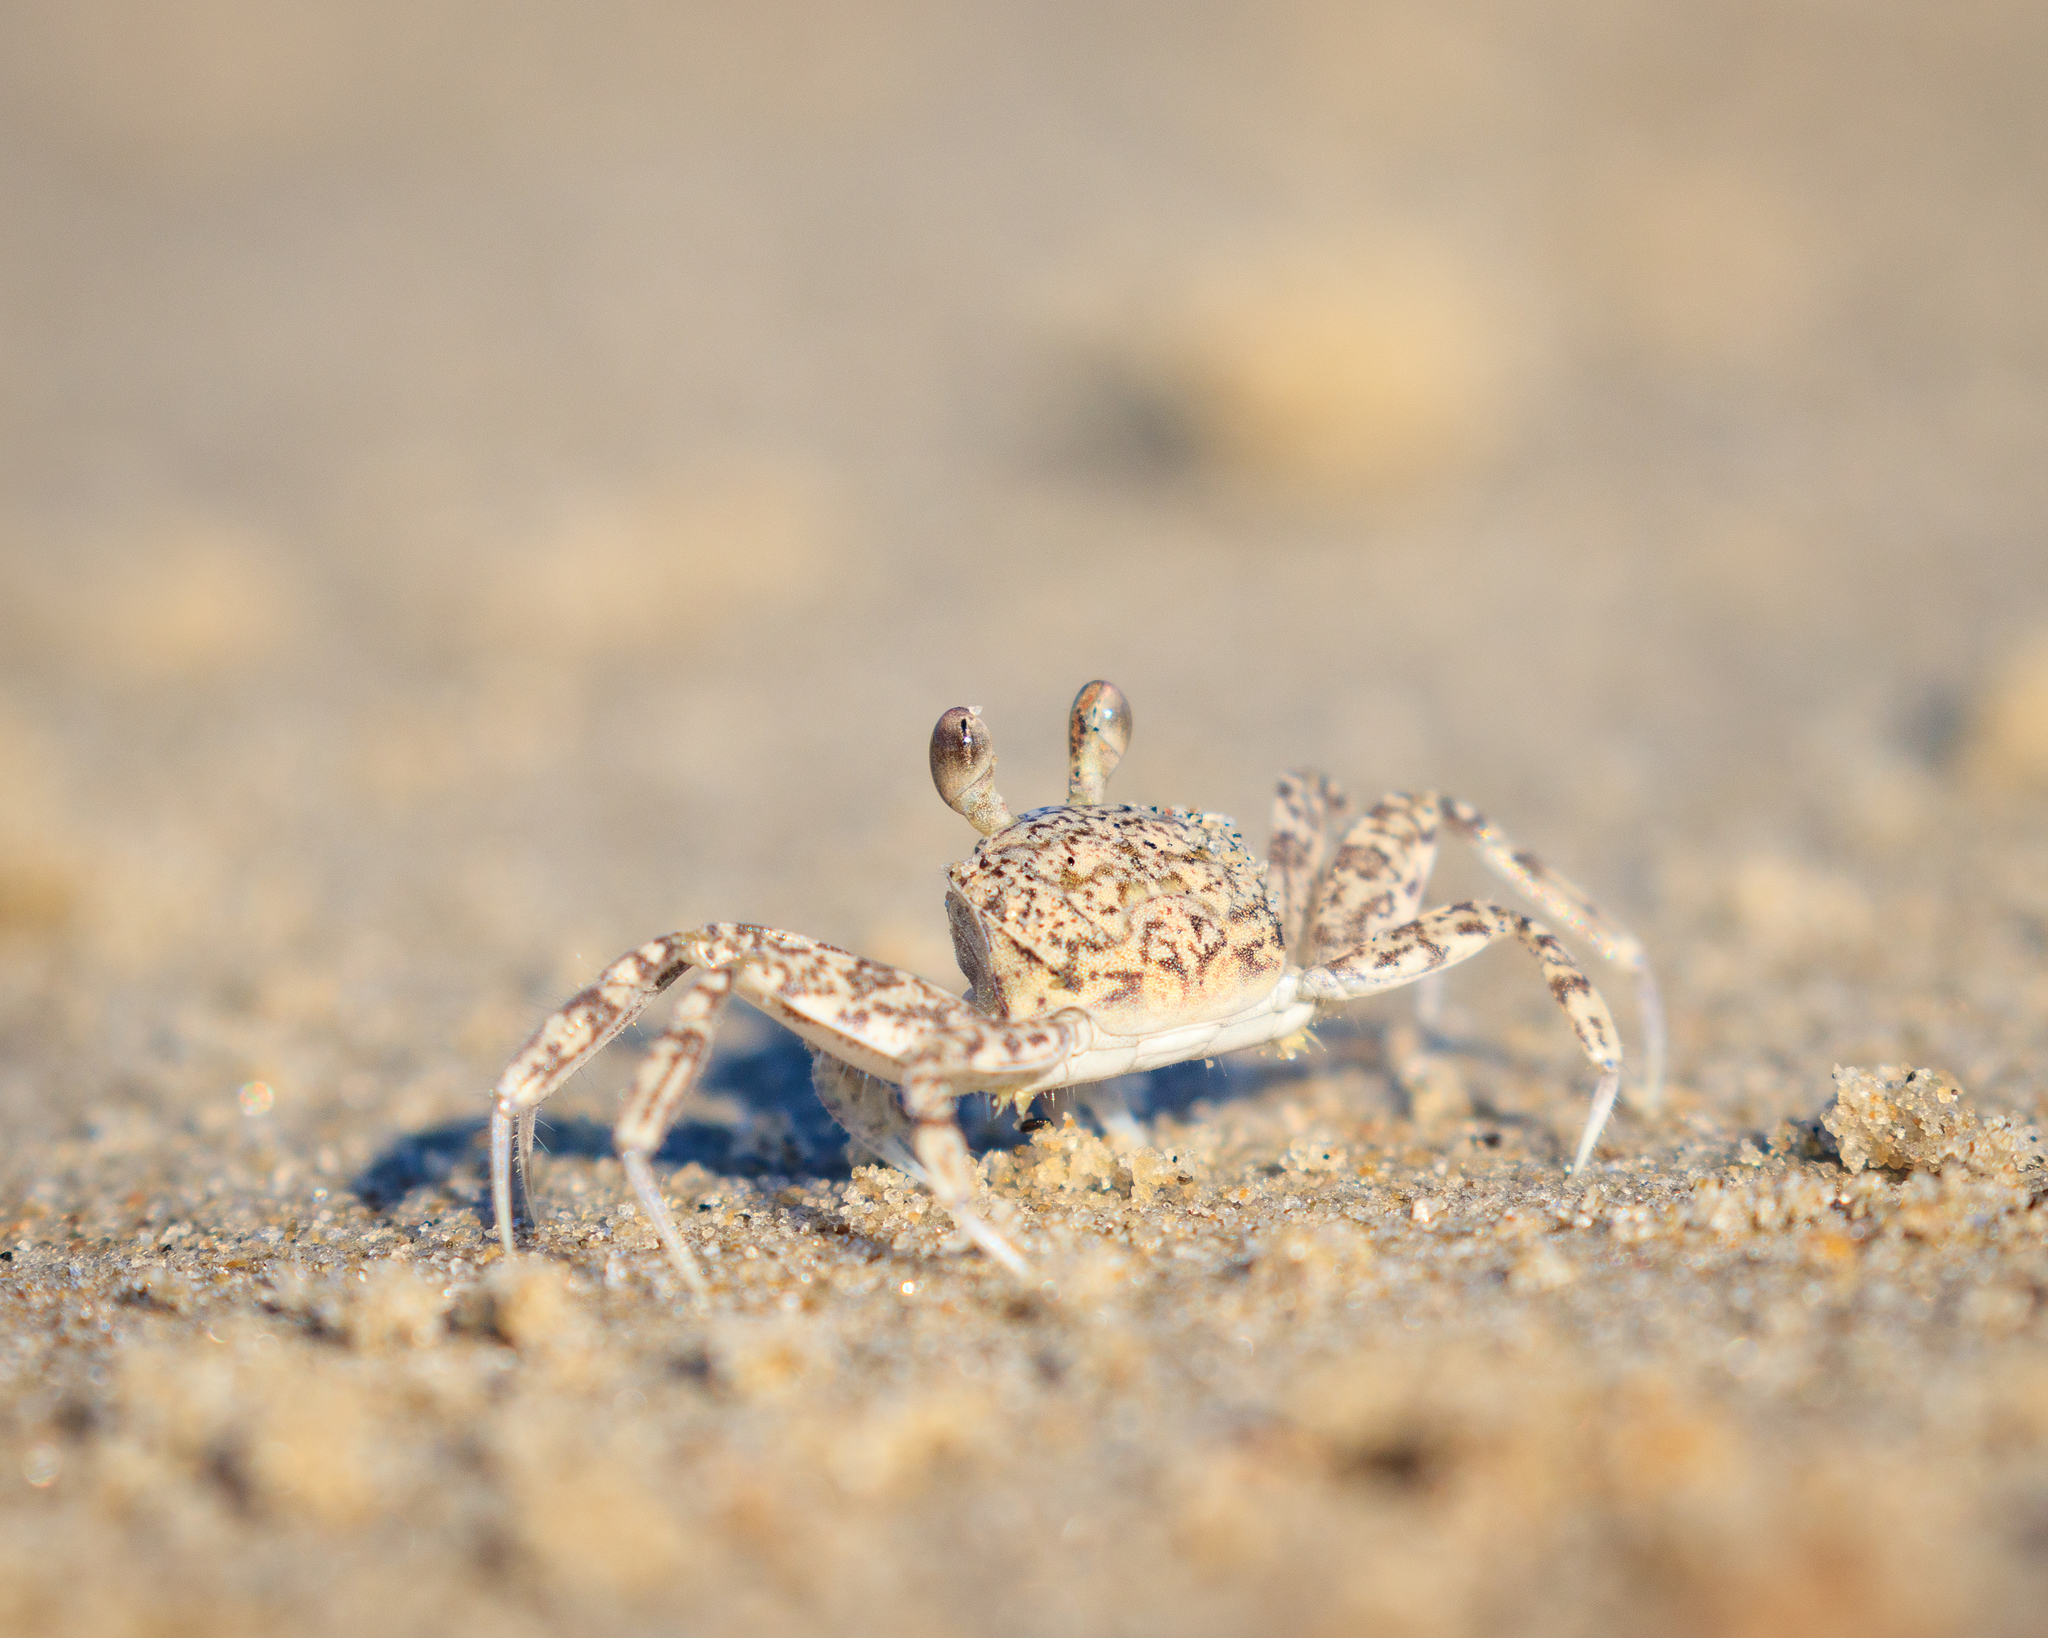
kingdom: Animalia
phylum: Arthropoda
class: Malacostraca
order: Decapoda
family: Ocypodidae
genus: Ocypode
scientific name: Ocypode quadrata
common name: Ghost crab
